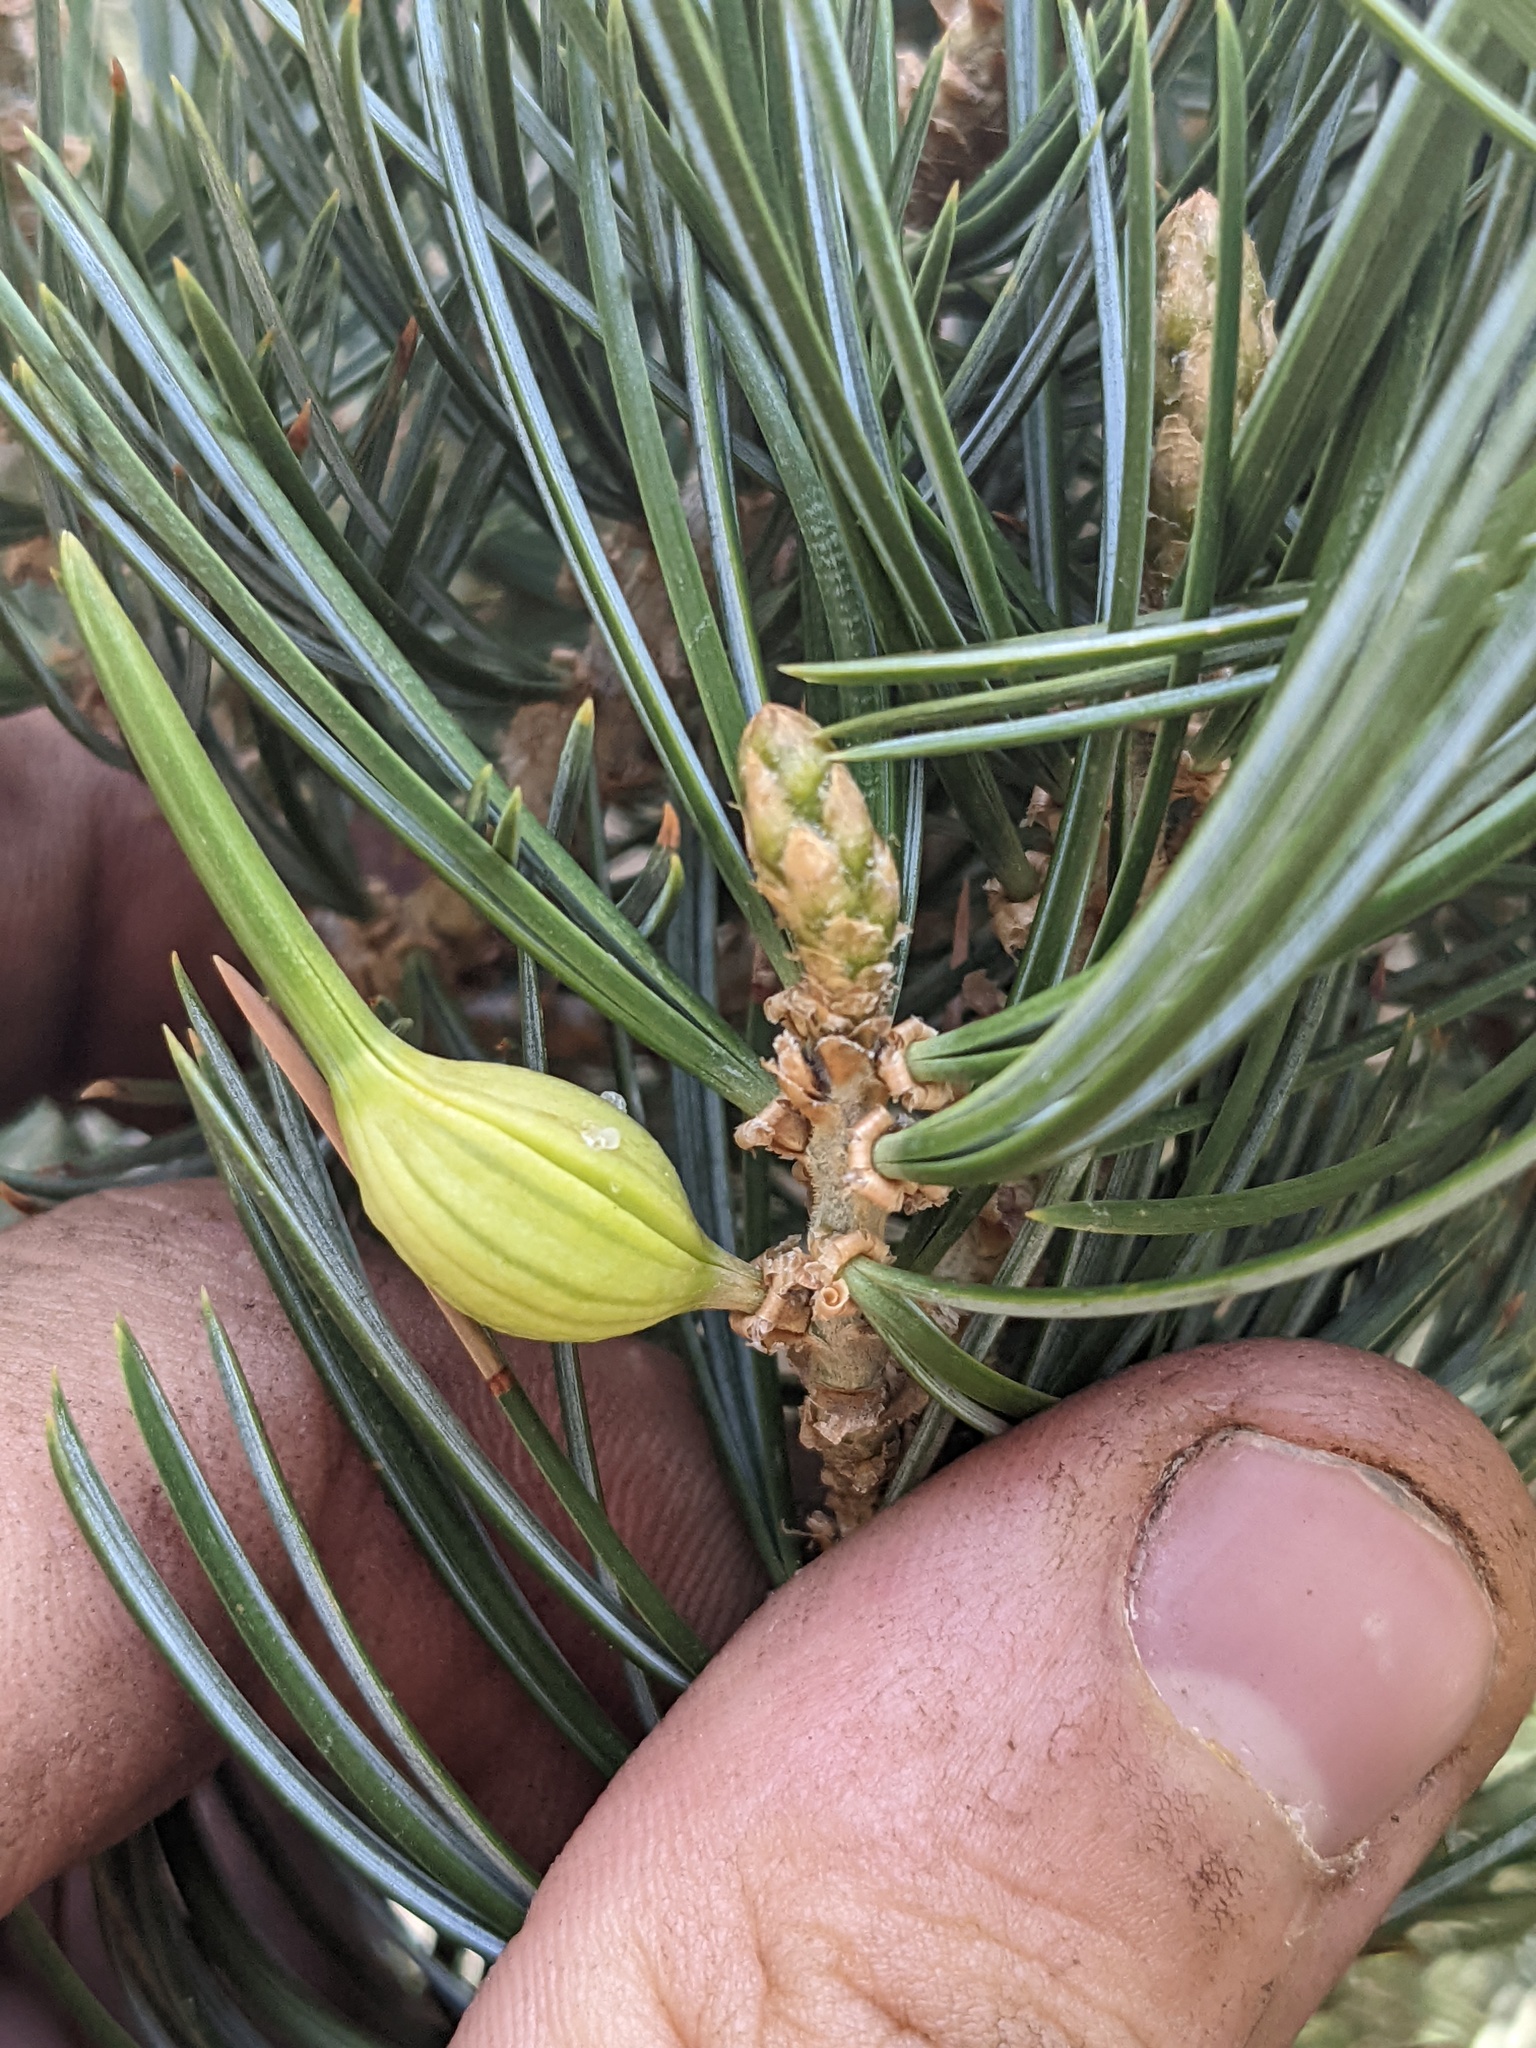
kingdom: Animalia
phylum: Arthropoda
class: Insecta
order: Diptera
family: Cecidomyiidae
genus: Pinyonia
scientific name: Pinyonia edulicola
